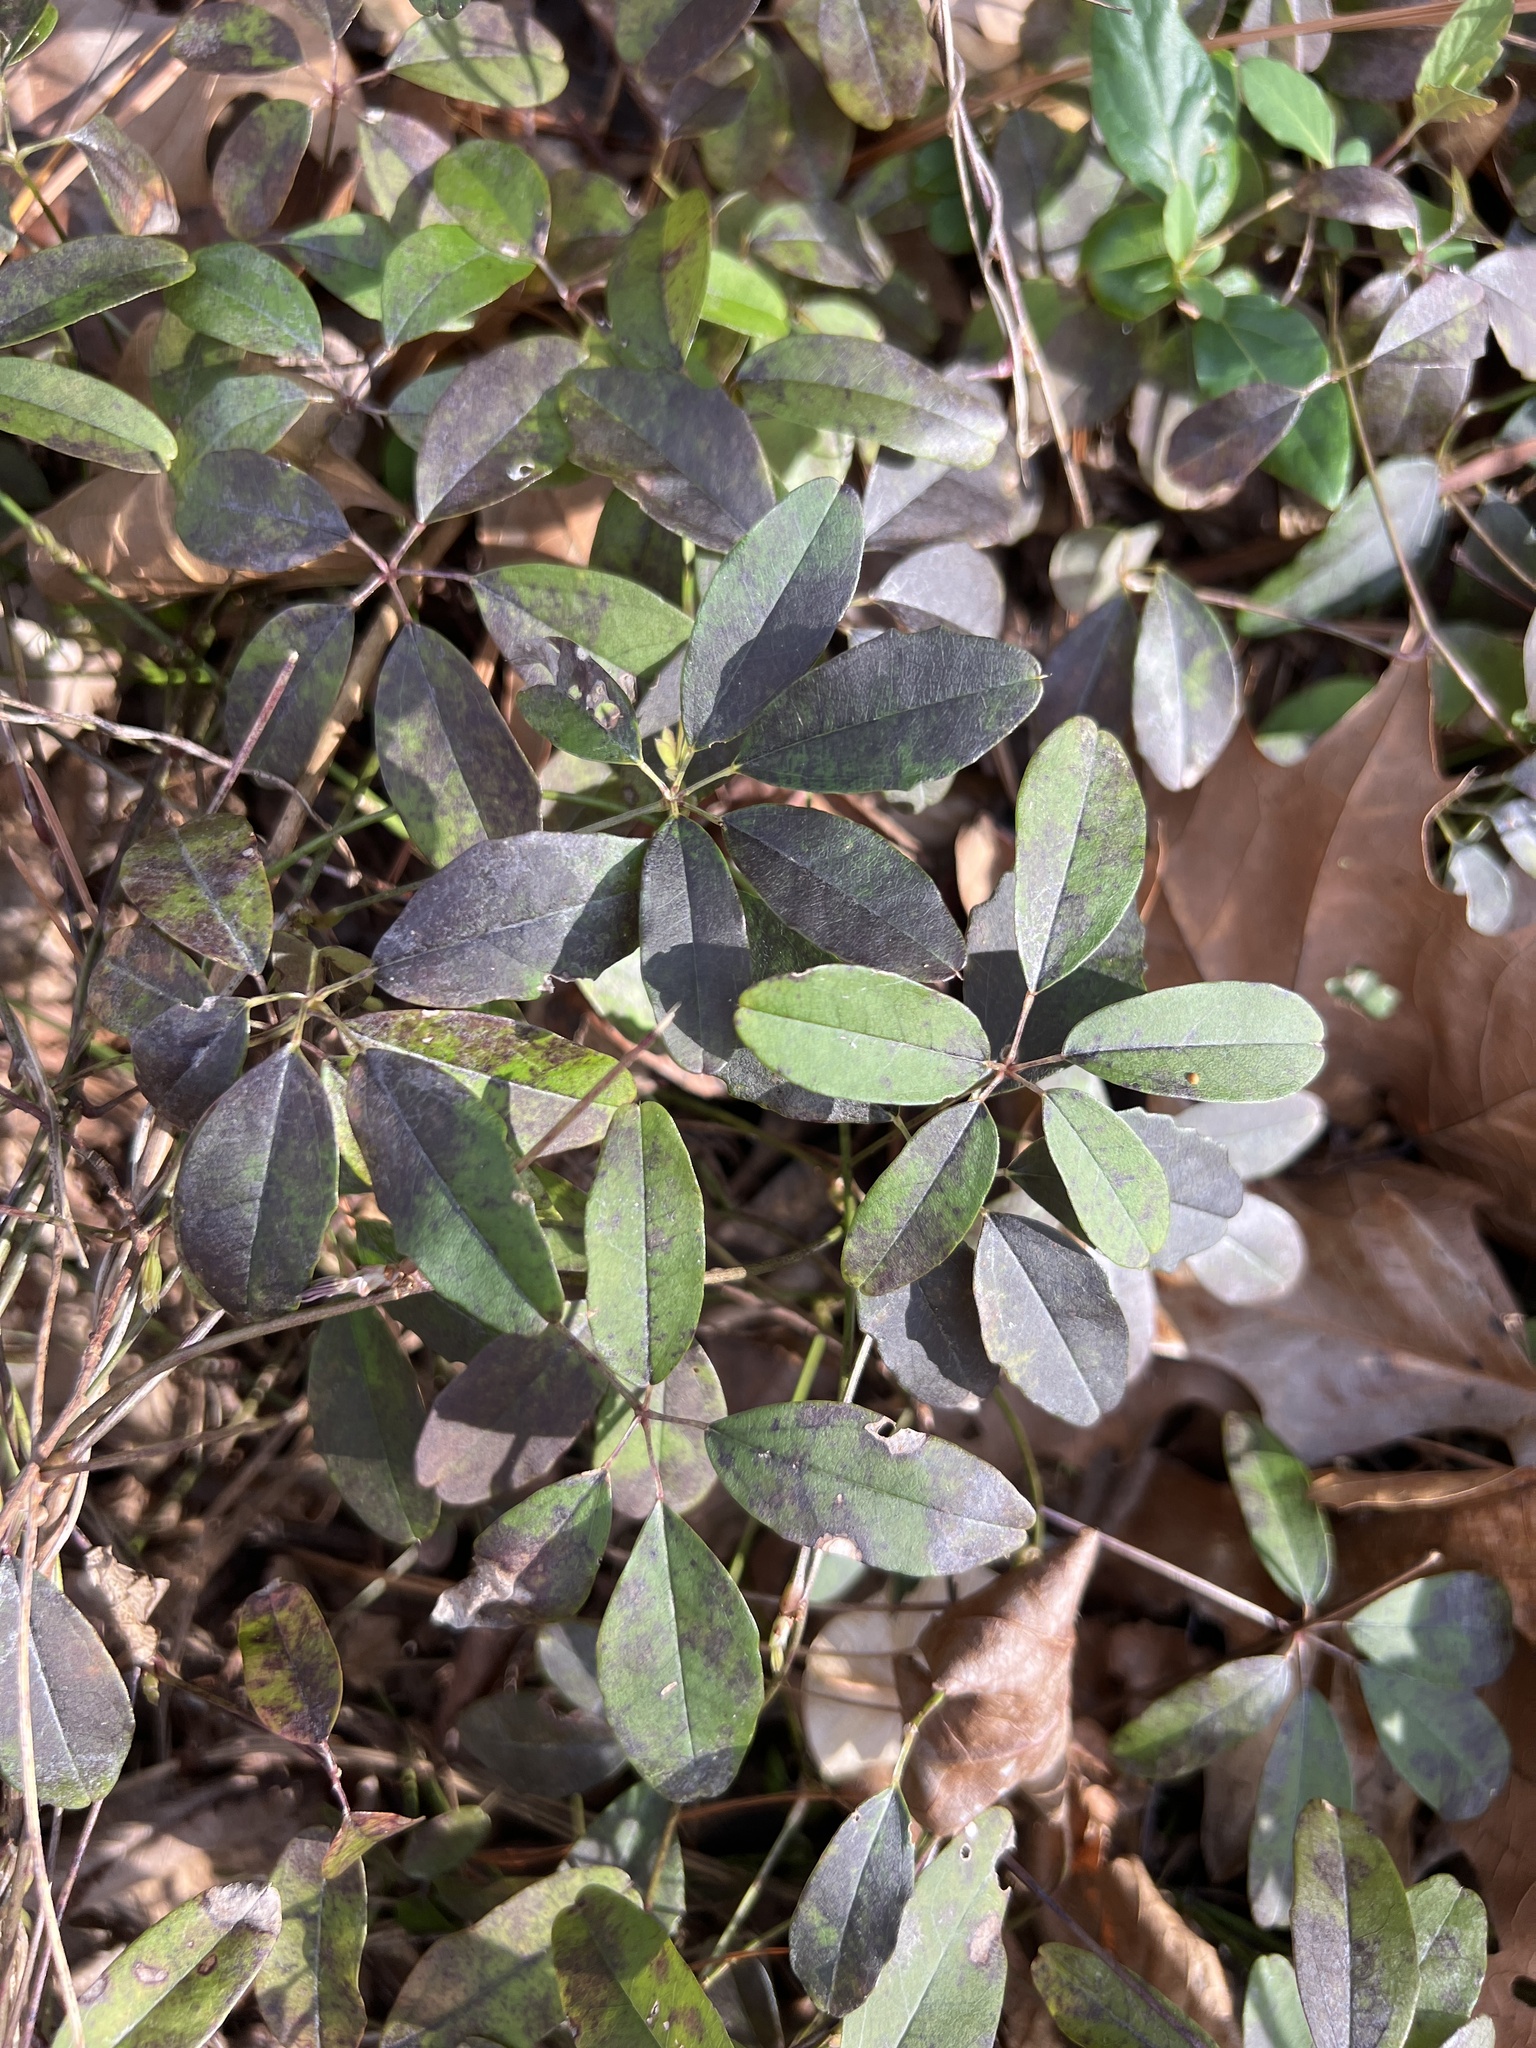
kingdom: Plantae
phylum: Tracheophyta
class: Magnoliopsida
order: Ranunculales
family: Lardizabalaceae
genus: Akebia
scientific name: Akebia quinata
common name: Five-leaf akebia
